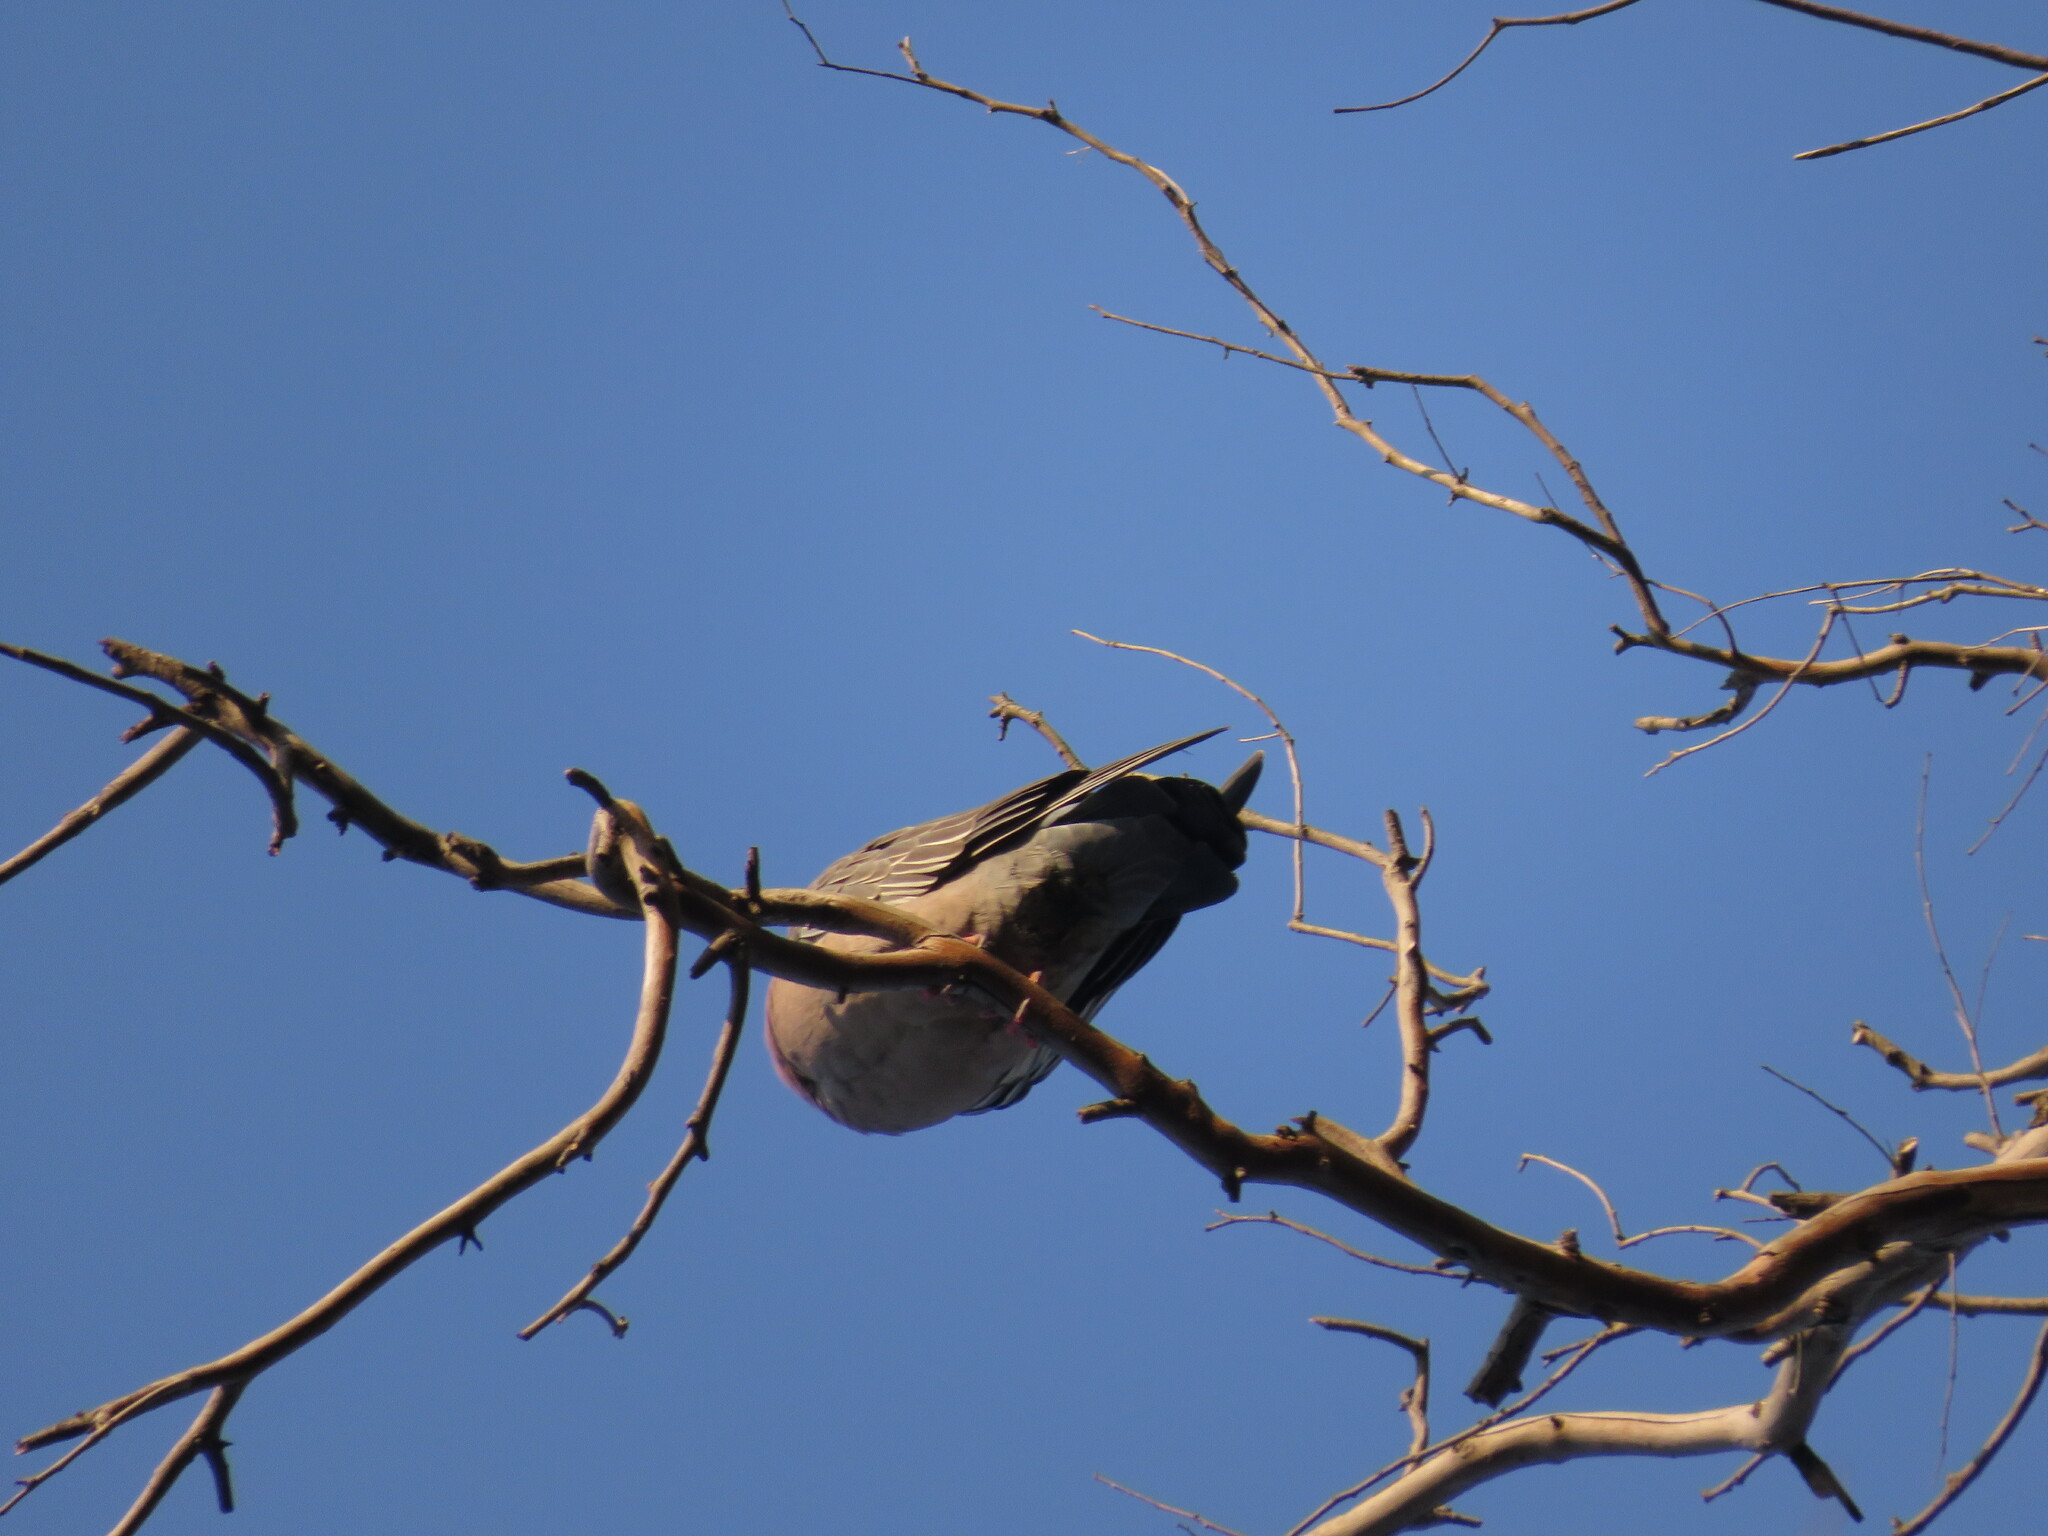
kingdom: Animalia
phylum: Chordata
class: Aves
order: Columbiformes
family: Columbidae
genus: Patagioenas
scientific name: Patagioenas picazuro
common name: Picazuro pigeon
